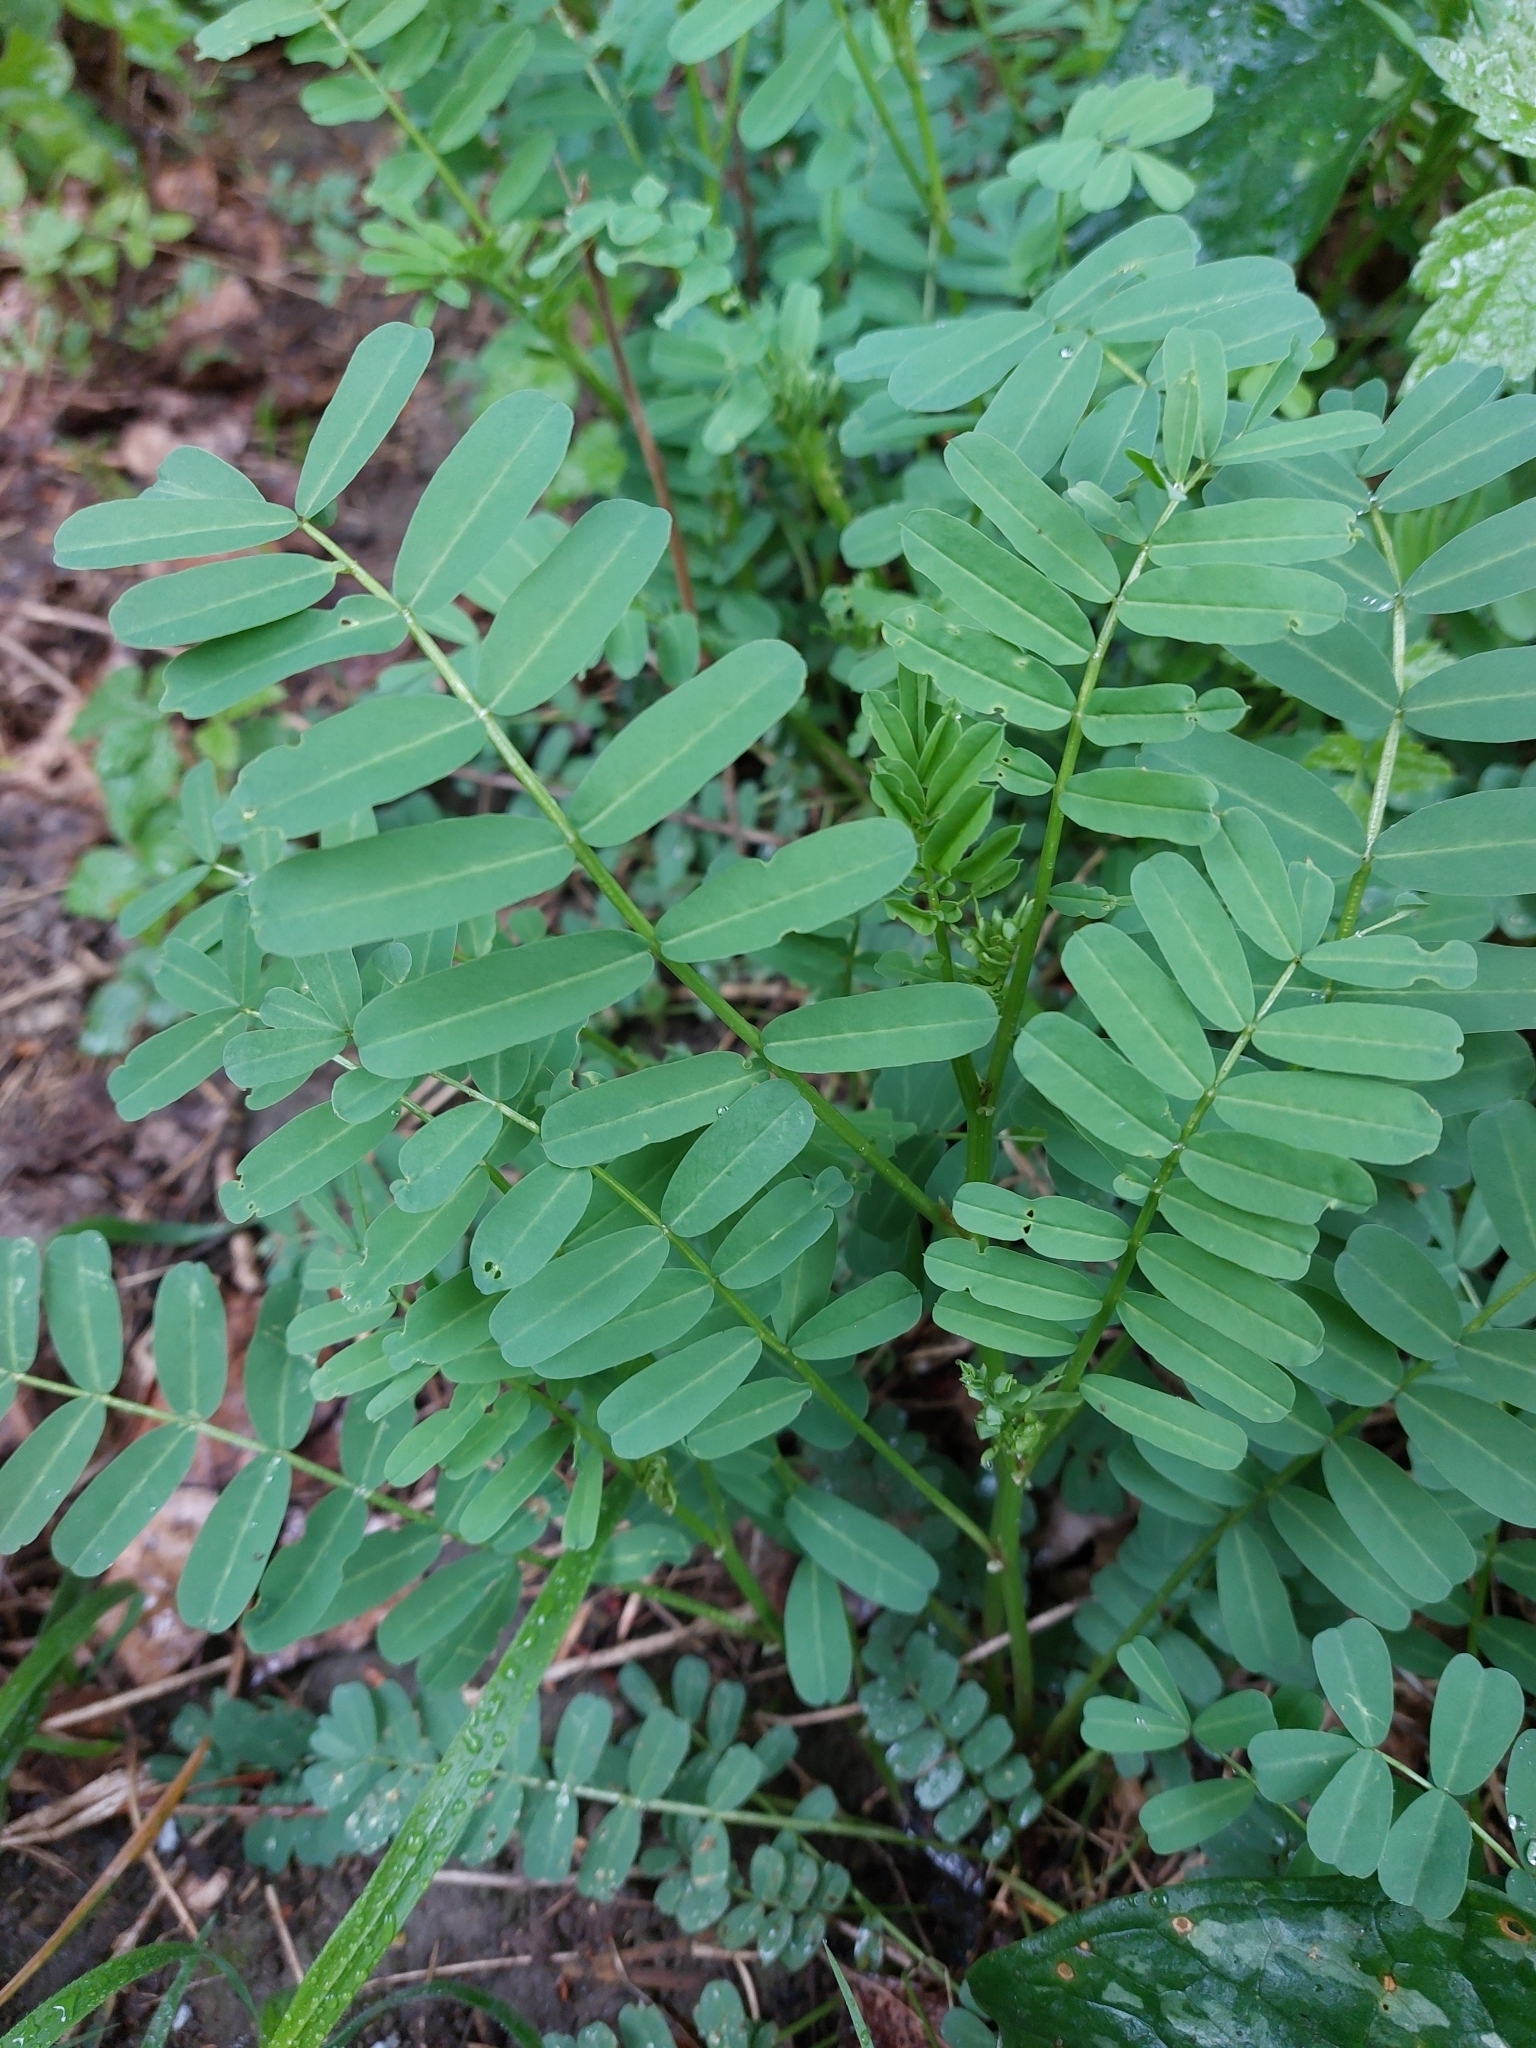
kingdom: Plantae
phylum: Tracheophyta
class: Magnoliopsida
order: Fabales
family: Fabaceae
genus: Coronilla
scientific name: Coronilla varia
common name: Crownvetch
